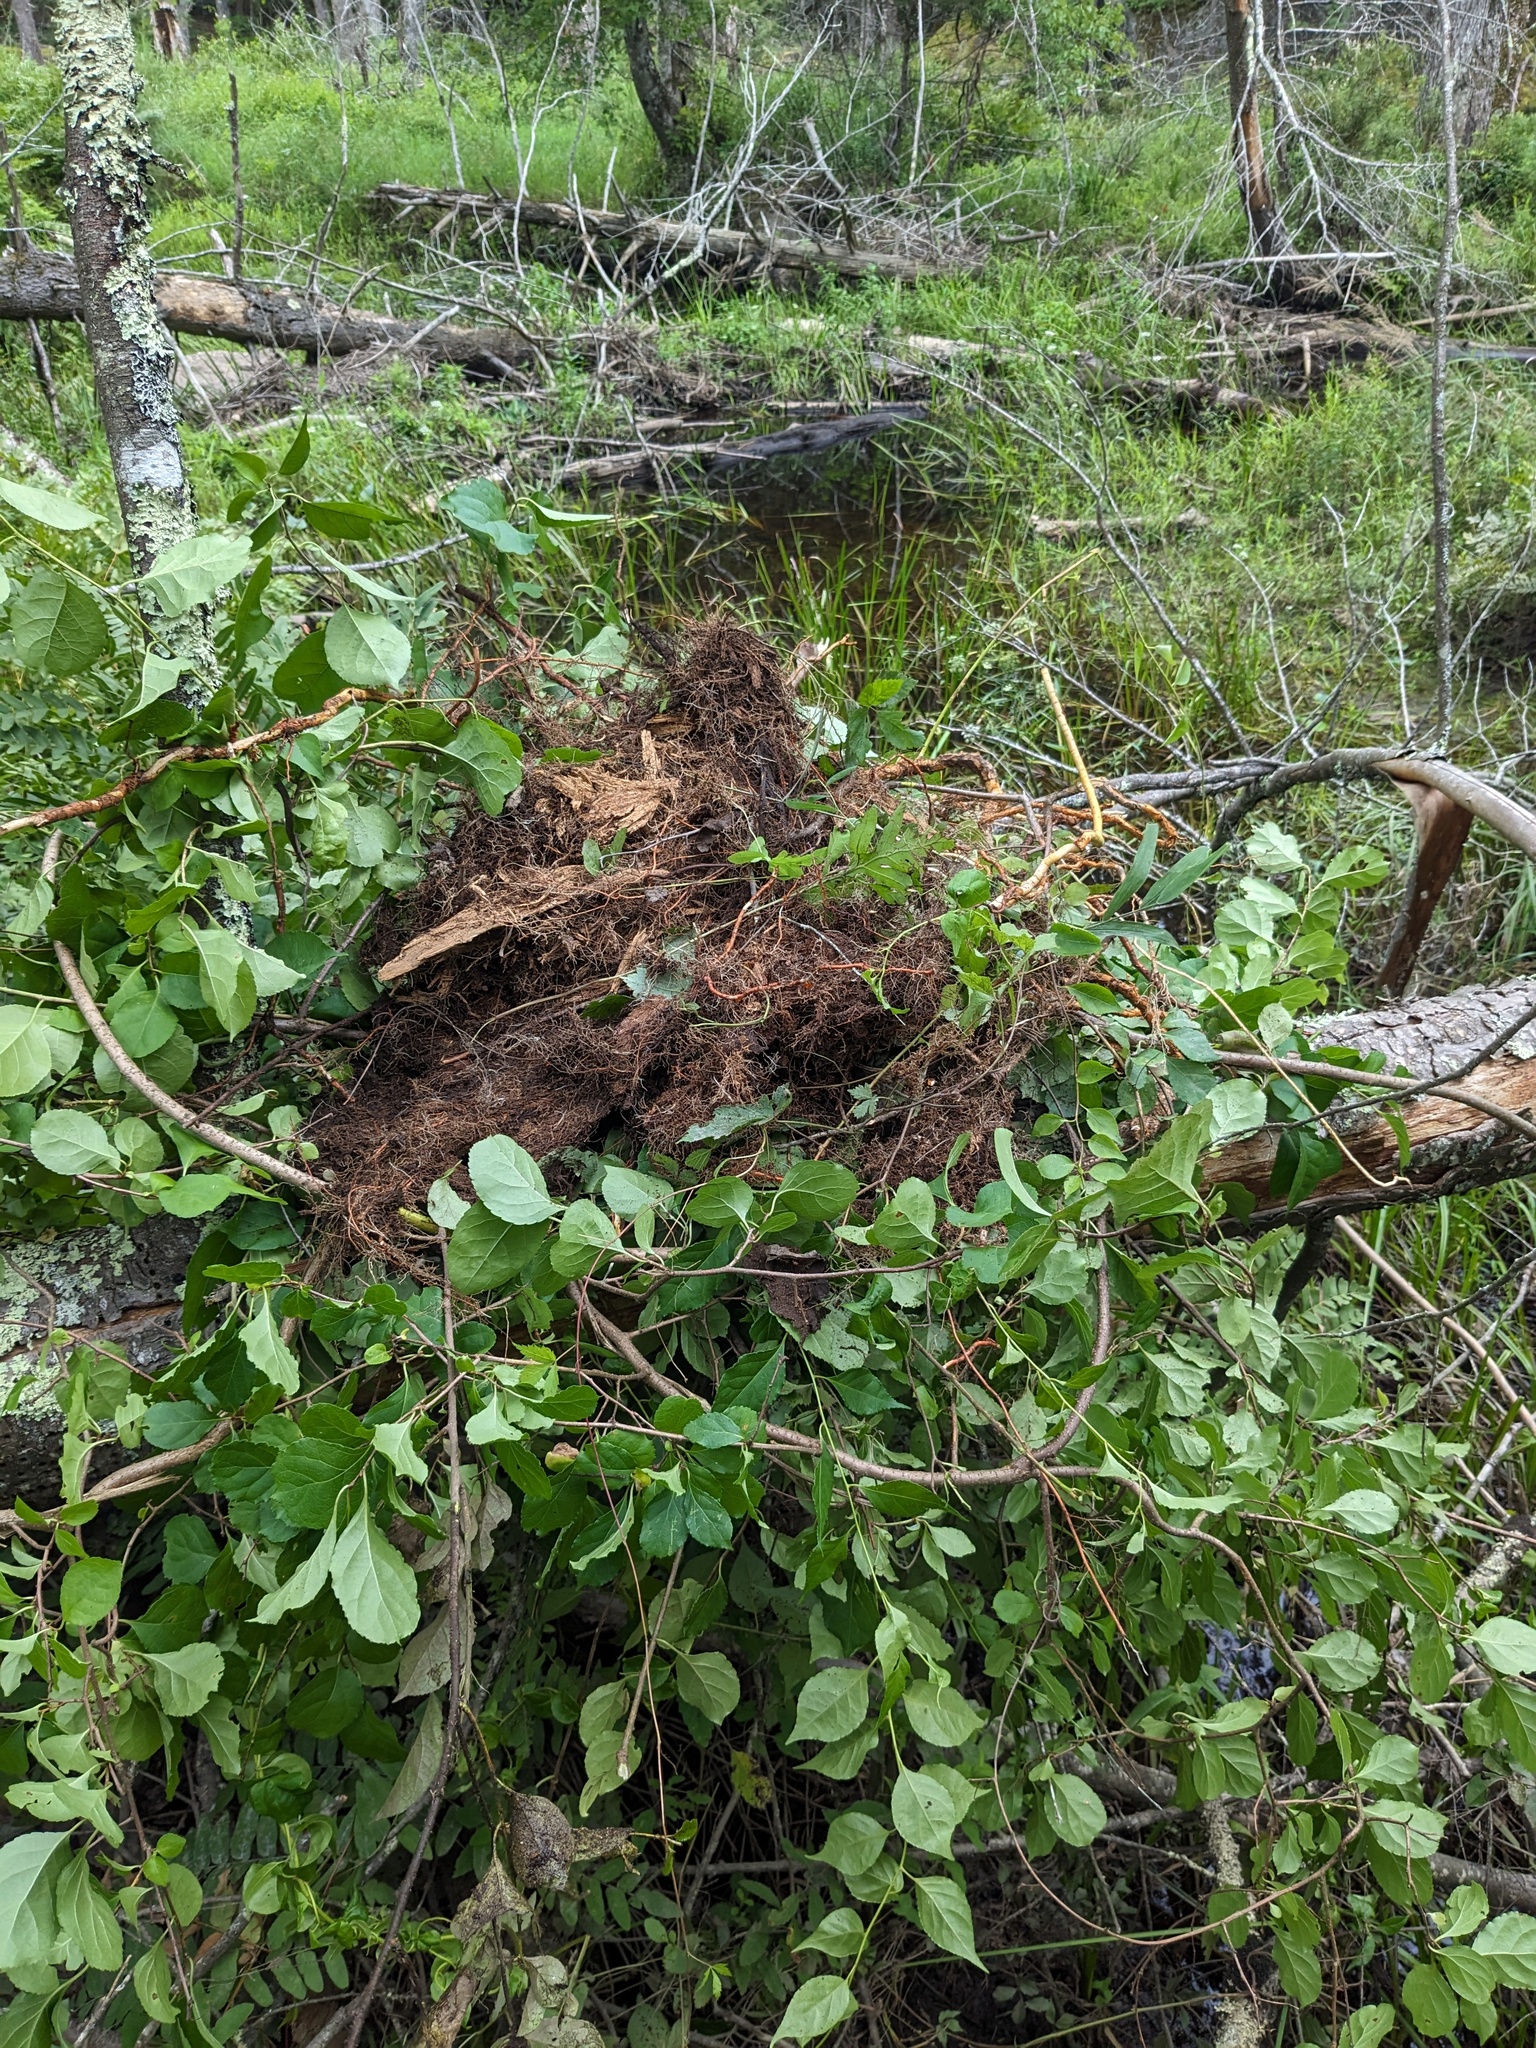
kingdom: Plantae
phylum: Tracheophyta
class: Magnoliopsida
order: Celastrales
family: Celastraceae
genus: Celastrus
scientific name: Celastrus orbiculatus
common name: Oriental bittersweet
